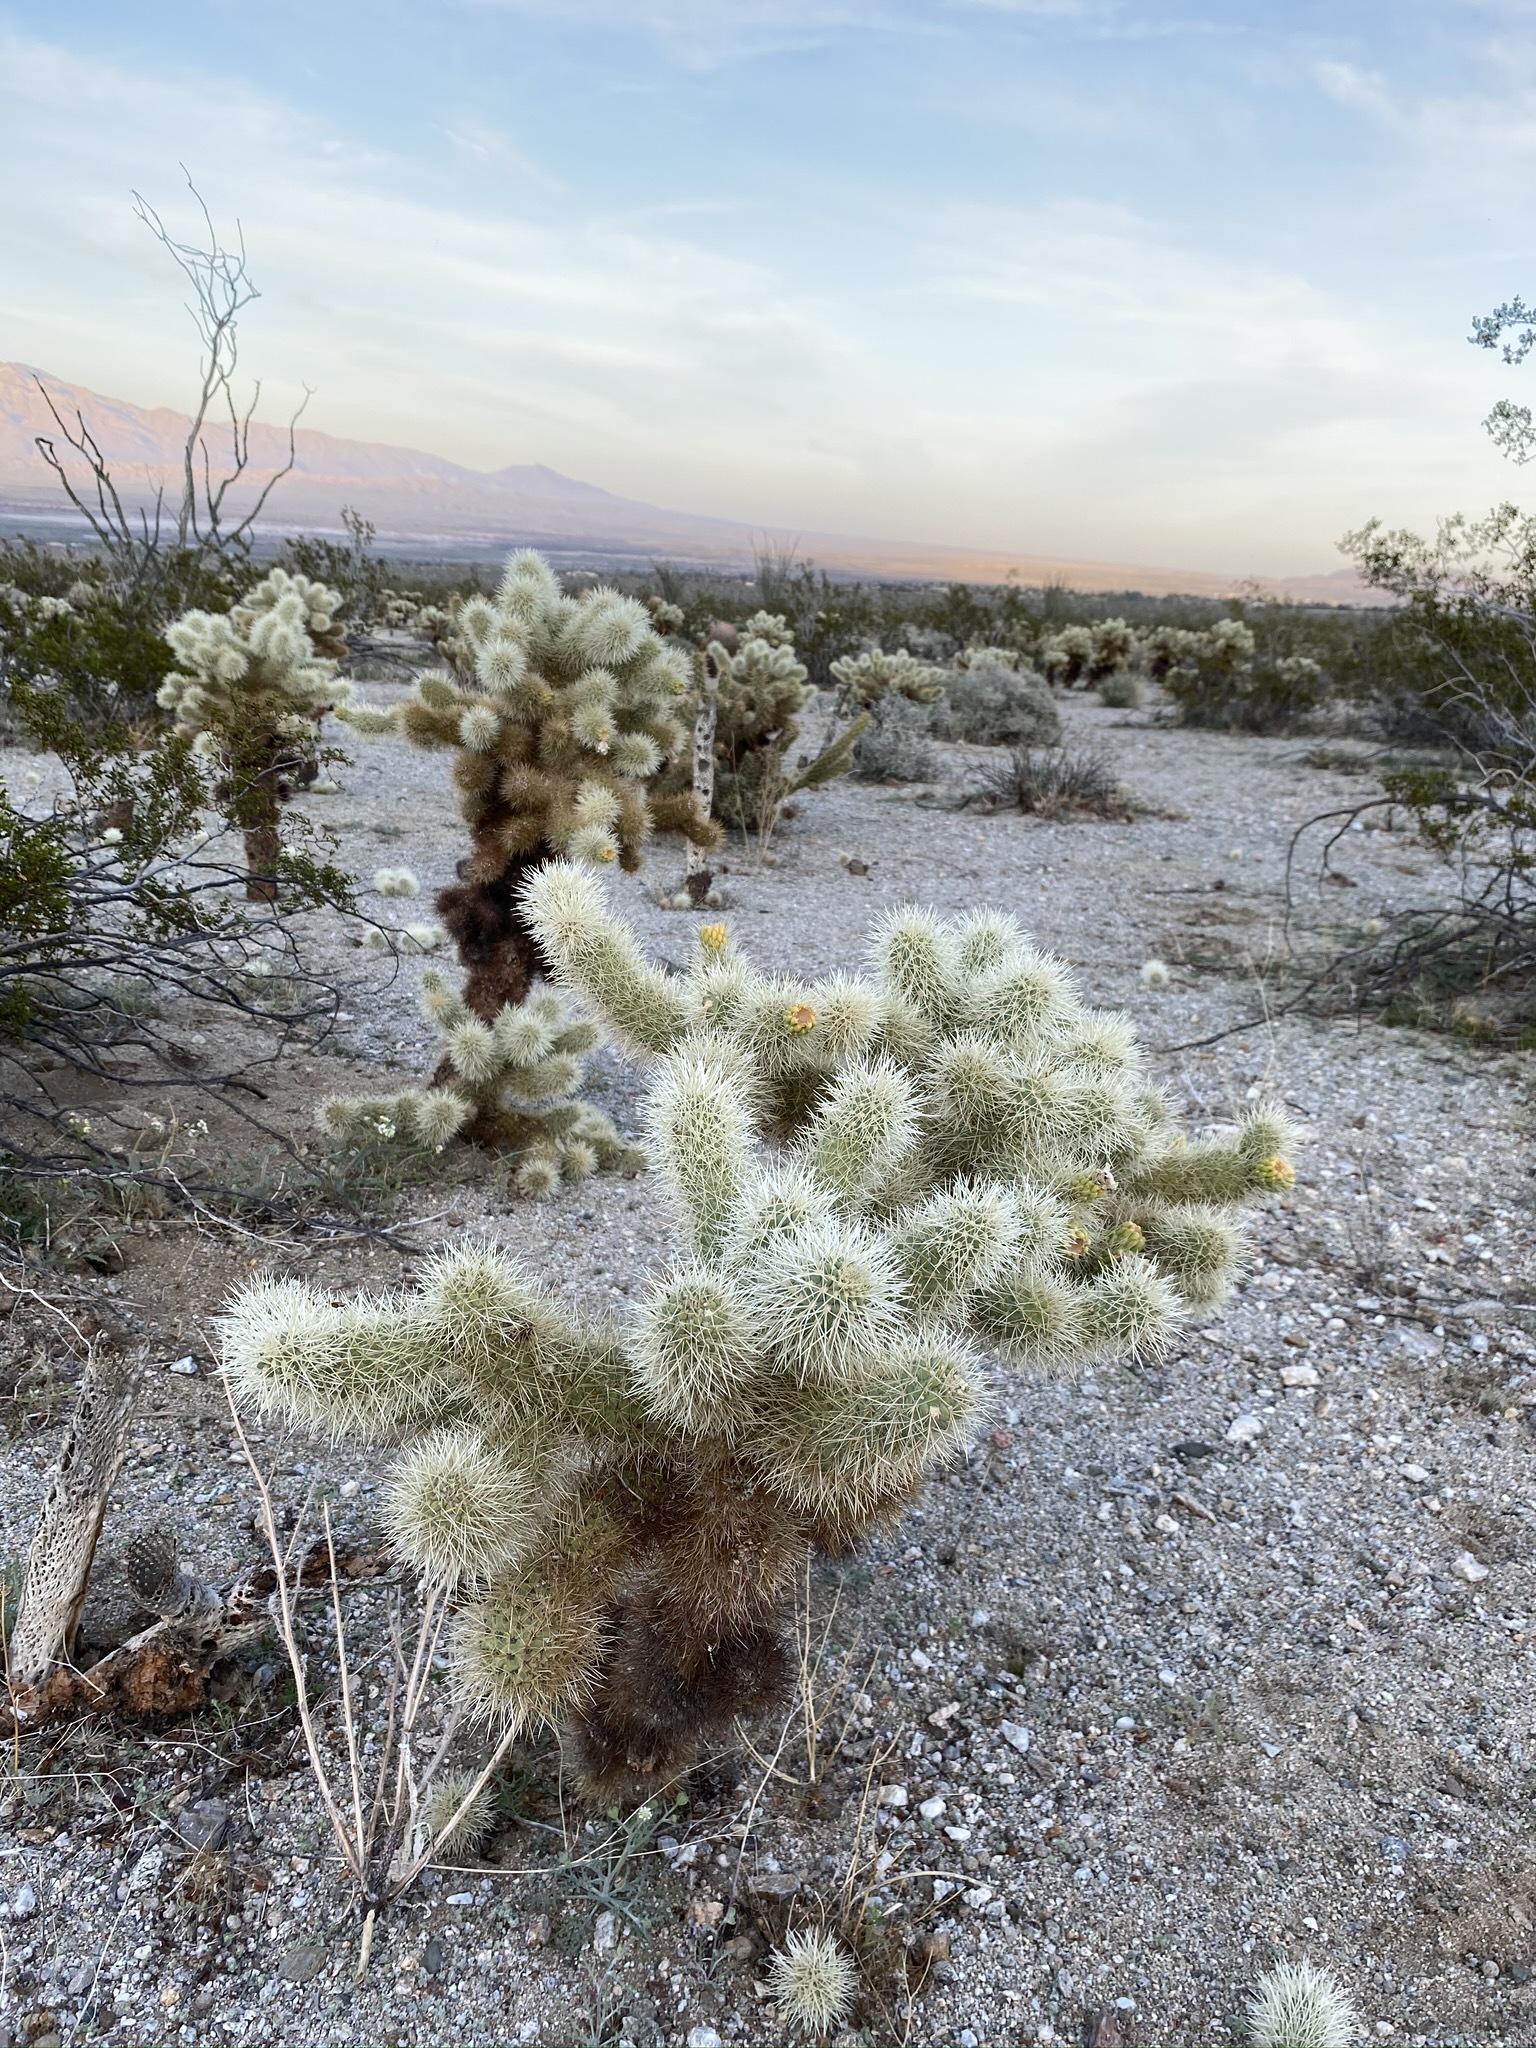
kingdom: Plantae
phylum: Tracheophyta
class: Magnoliopsida
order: Caryophyllales
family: Cactaceae
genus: Cylindropuntia
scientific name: Cylindropuntia fosbergii
